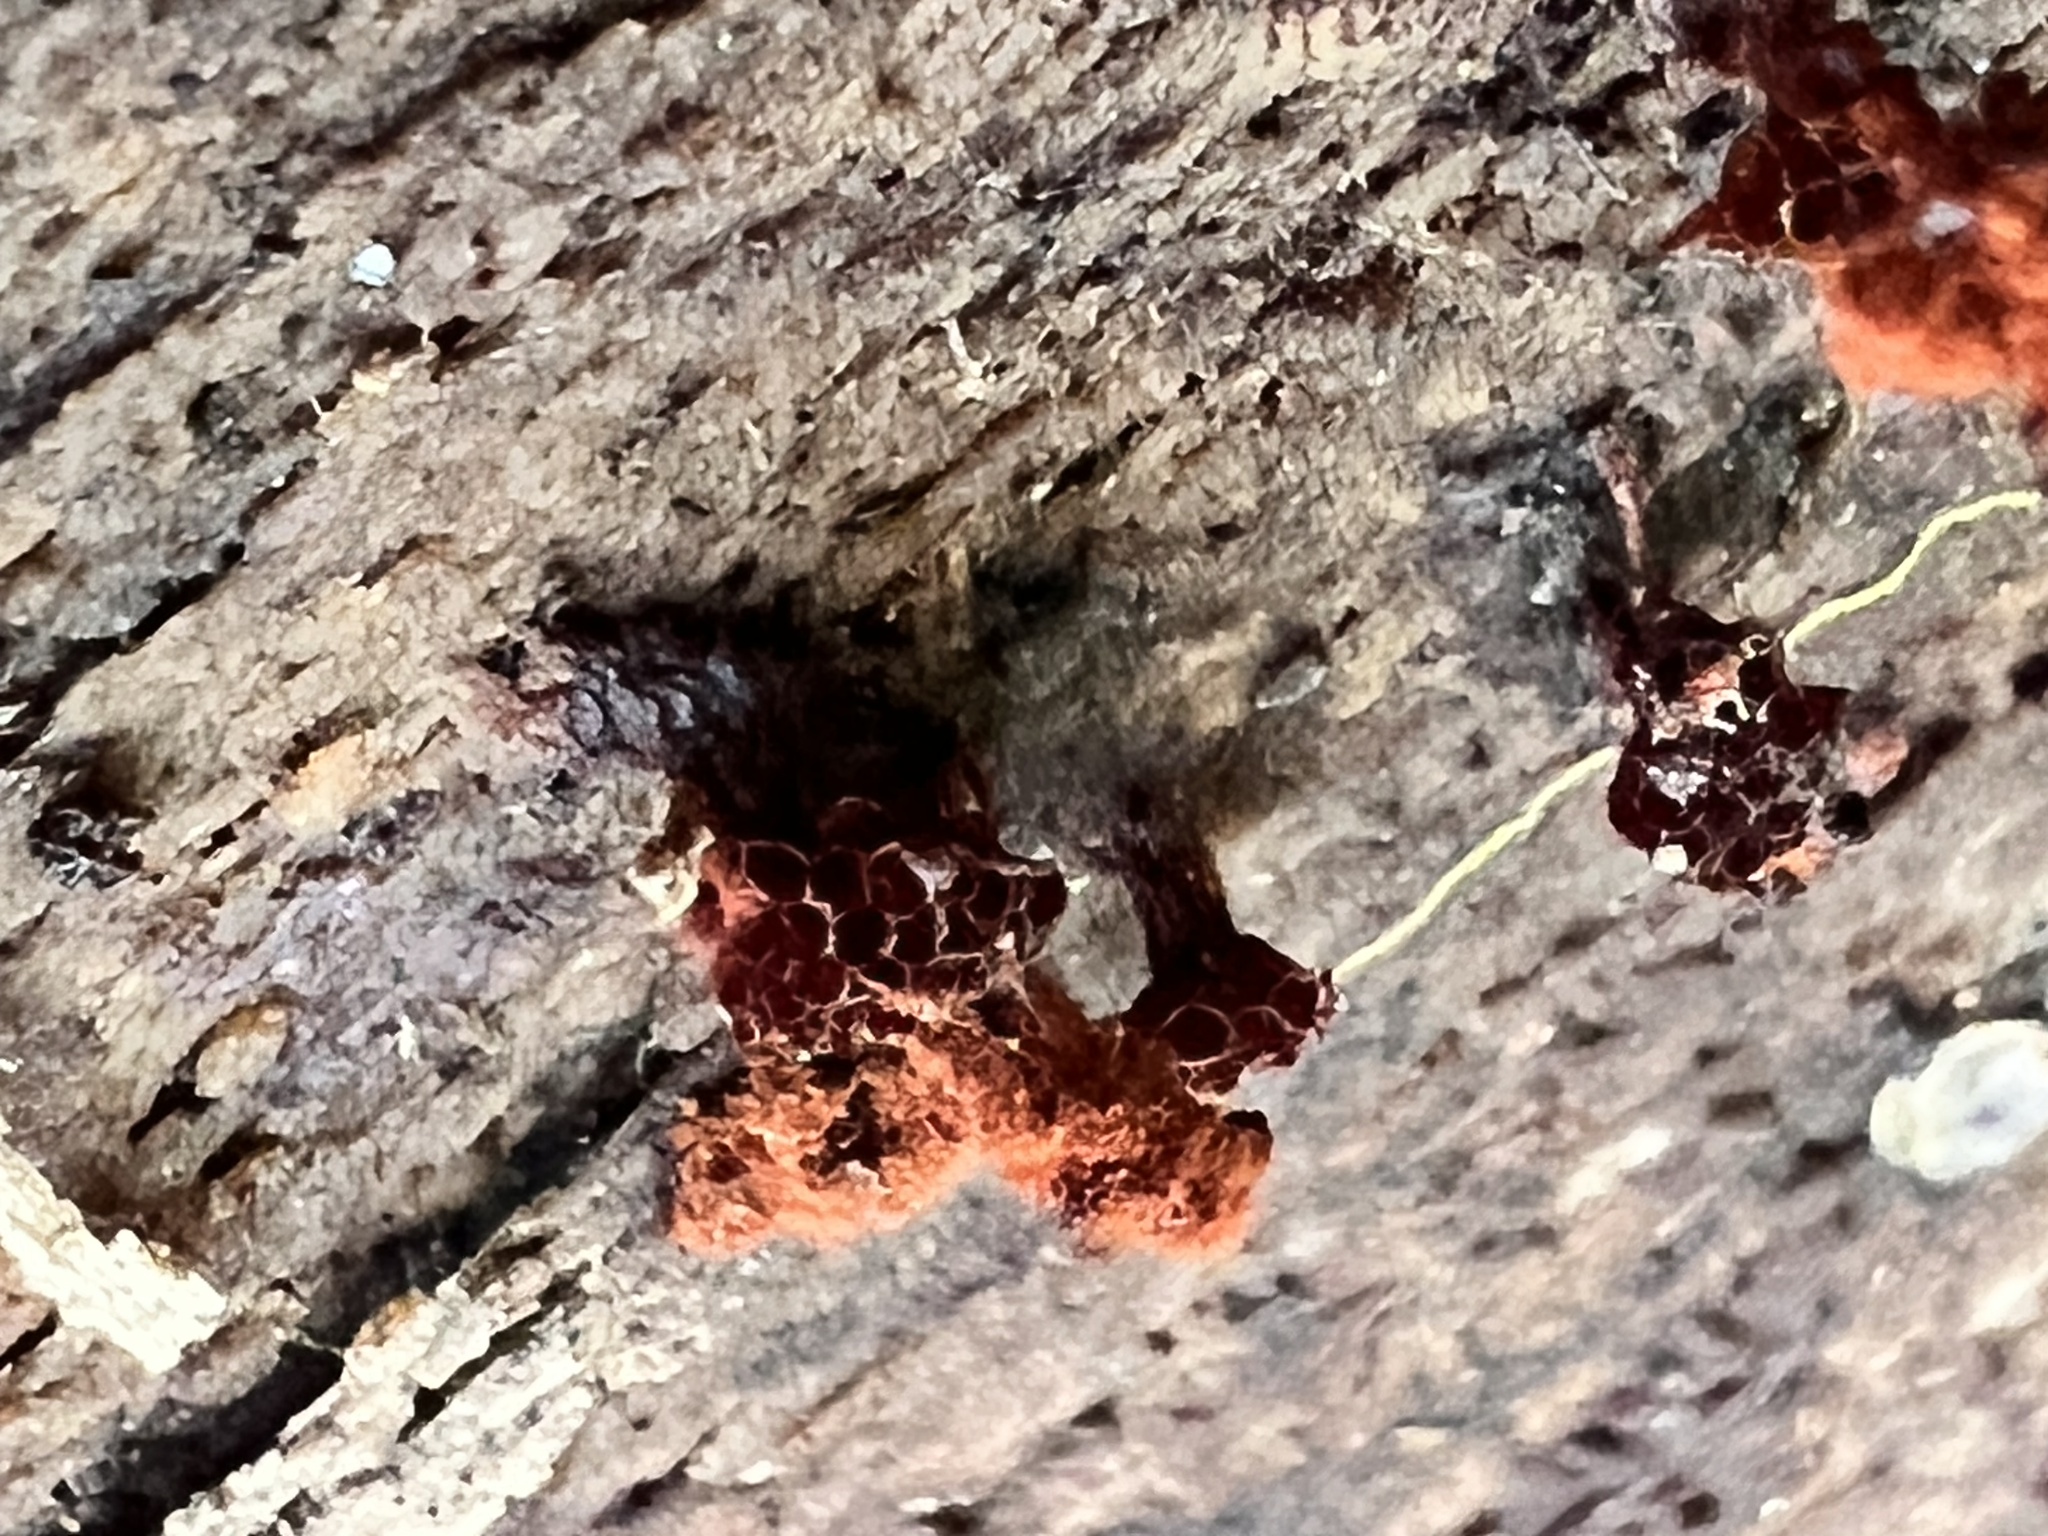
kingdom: Protozoa
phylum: Mycetozoa
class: Myxomycetes
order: Trichiales
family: Trichiaceae
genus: Metatrichia
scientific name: Metatrichia vesparia
